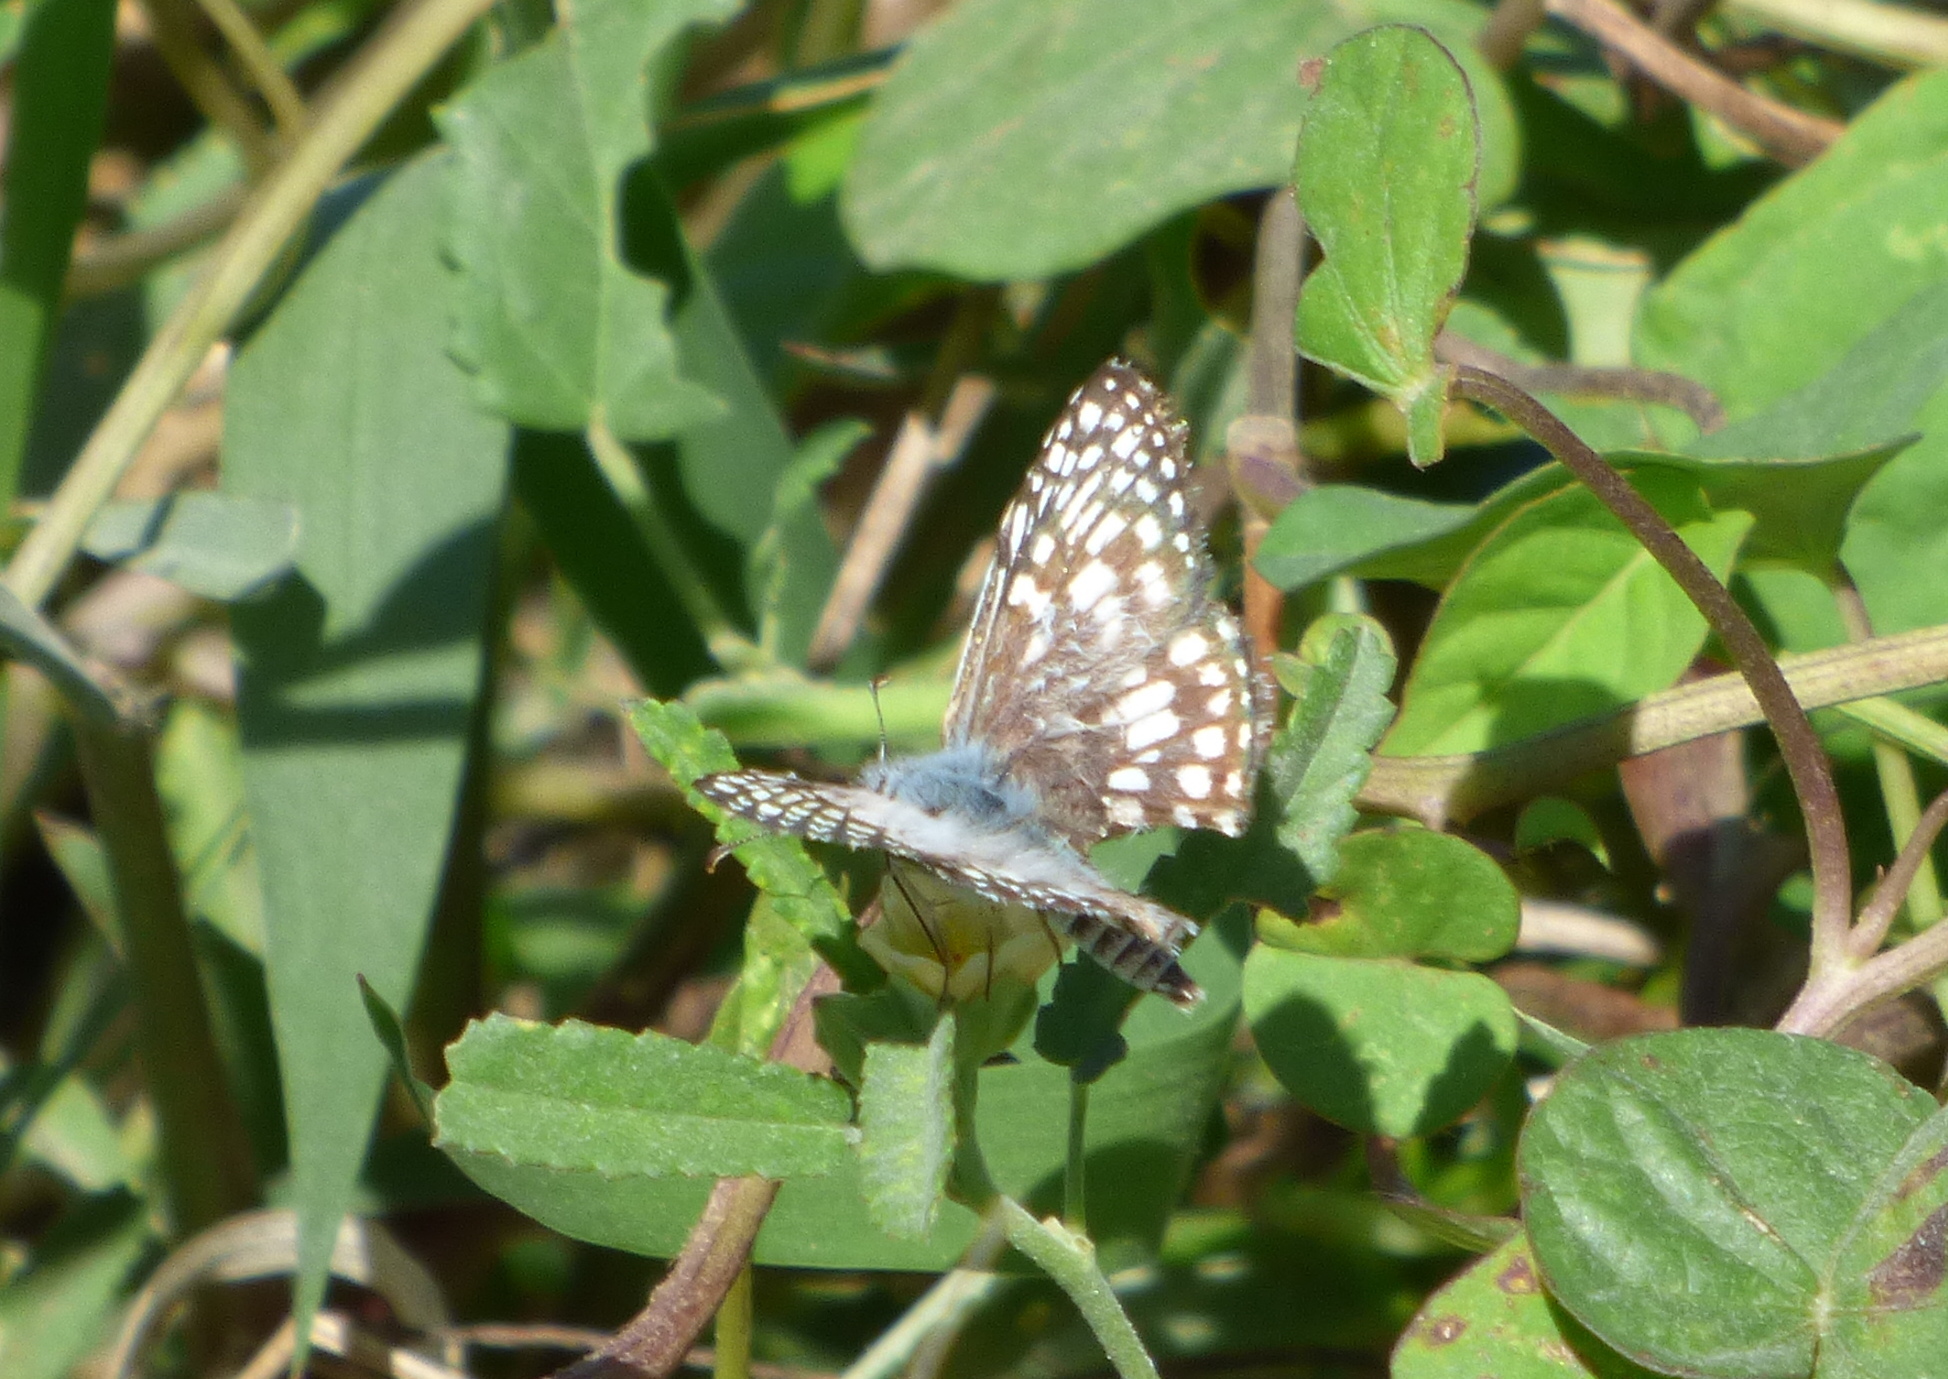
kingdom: Animalia
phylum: Arthropoda
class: Insecta
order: Lepidoptera
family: Hesperiidae
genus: Pyrgus
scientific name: Pyrgus oileus
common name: Tropical checkered-skipper
